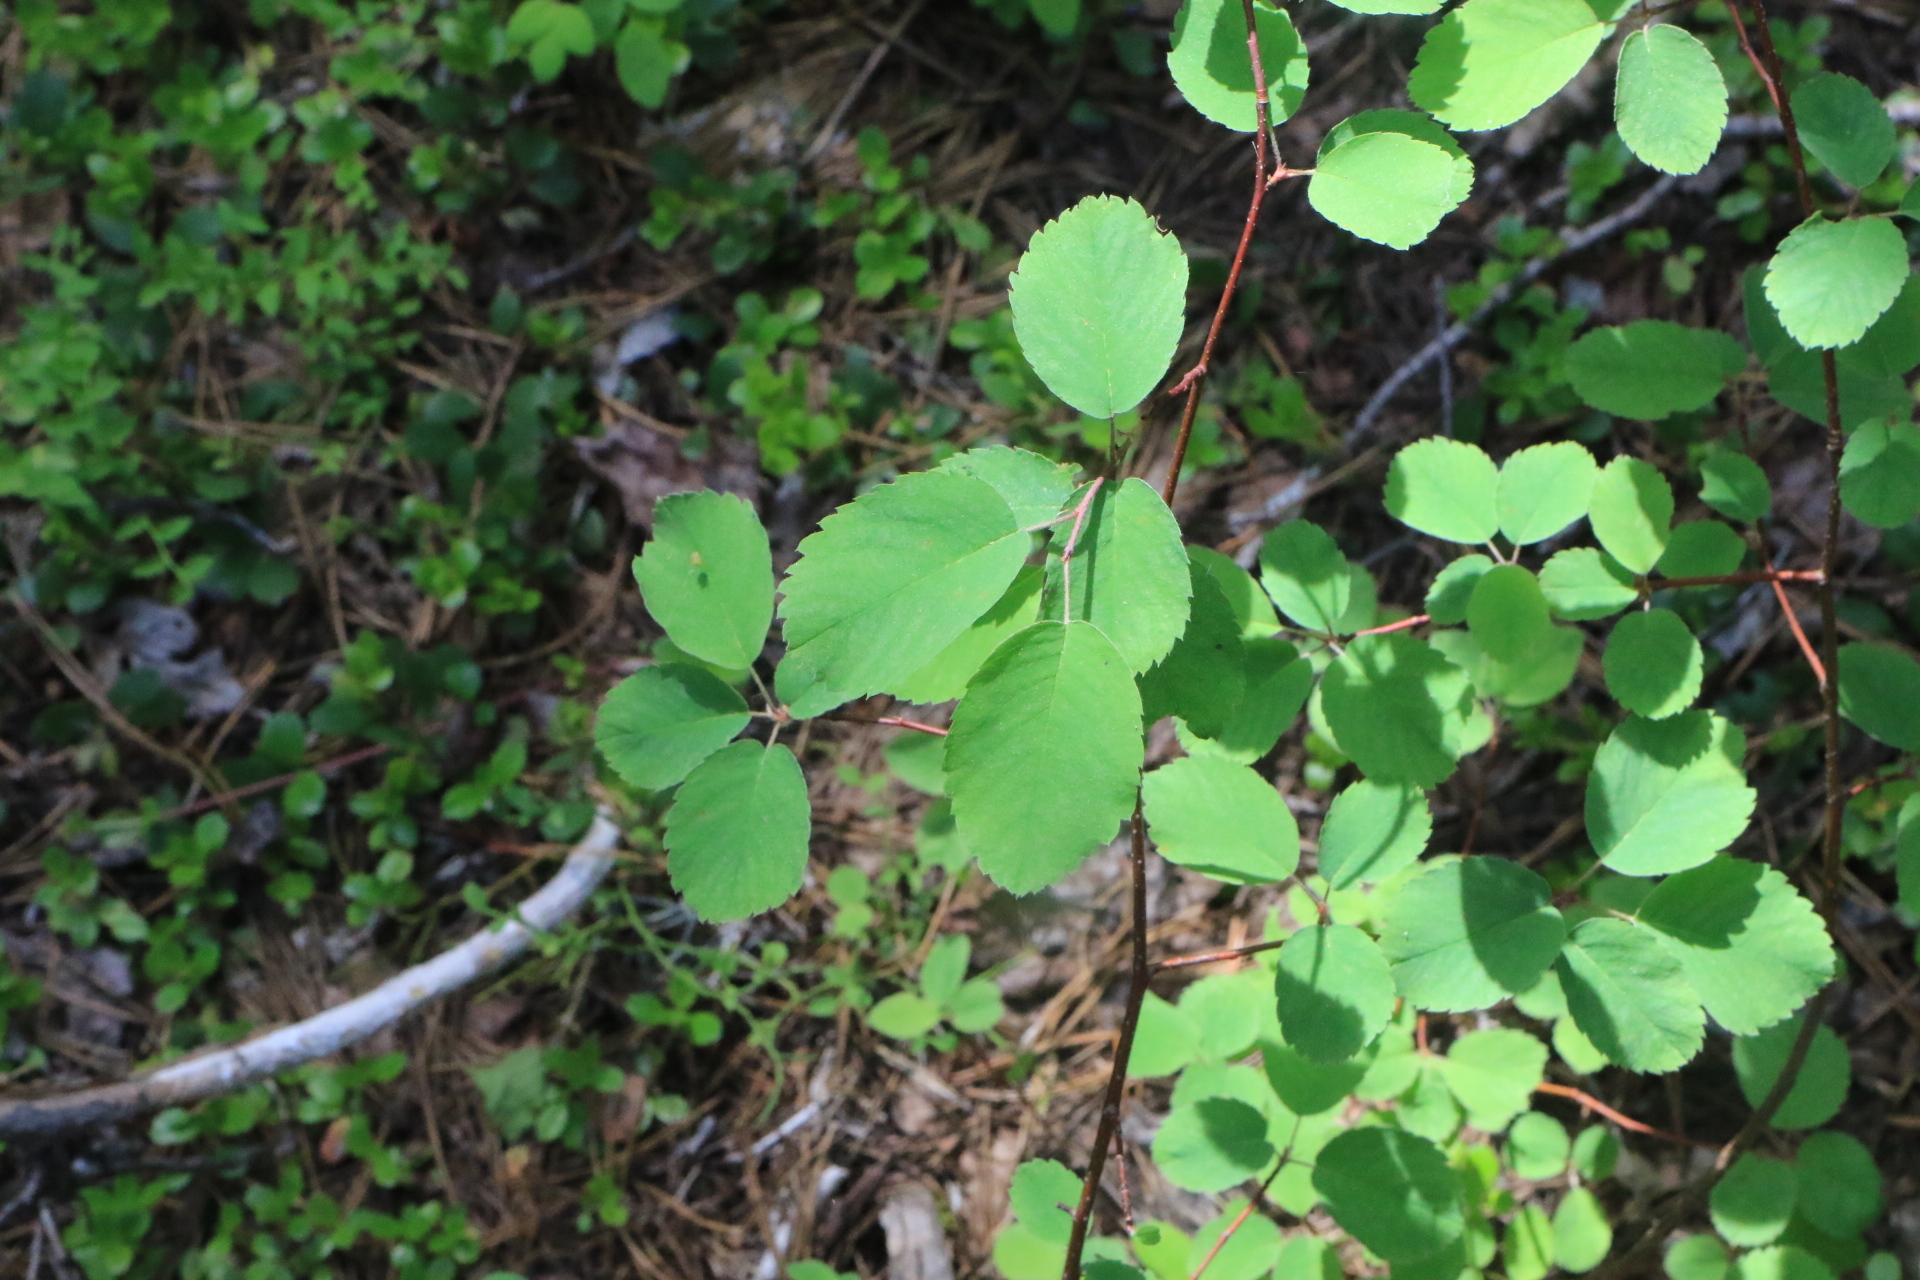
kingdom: Plantae
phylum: Tracheophyta
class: Magnoliopsida
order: Rosales
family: Rosaceae
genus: Amelanchier
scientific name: Amelanchier alnifolia
